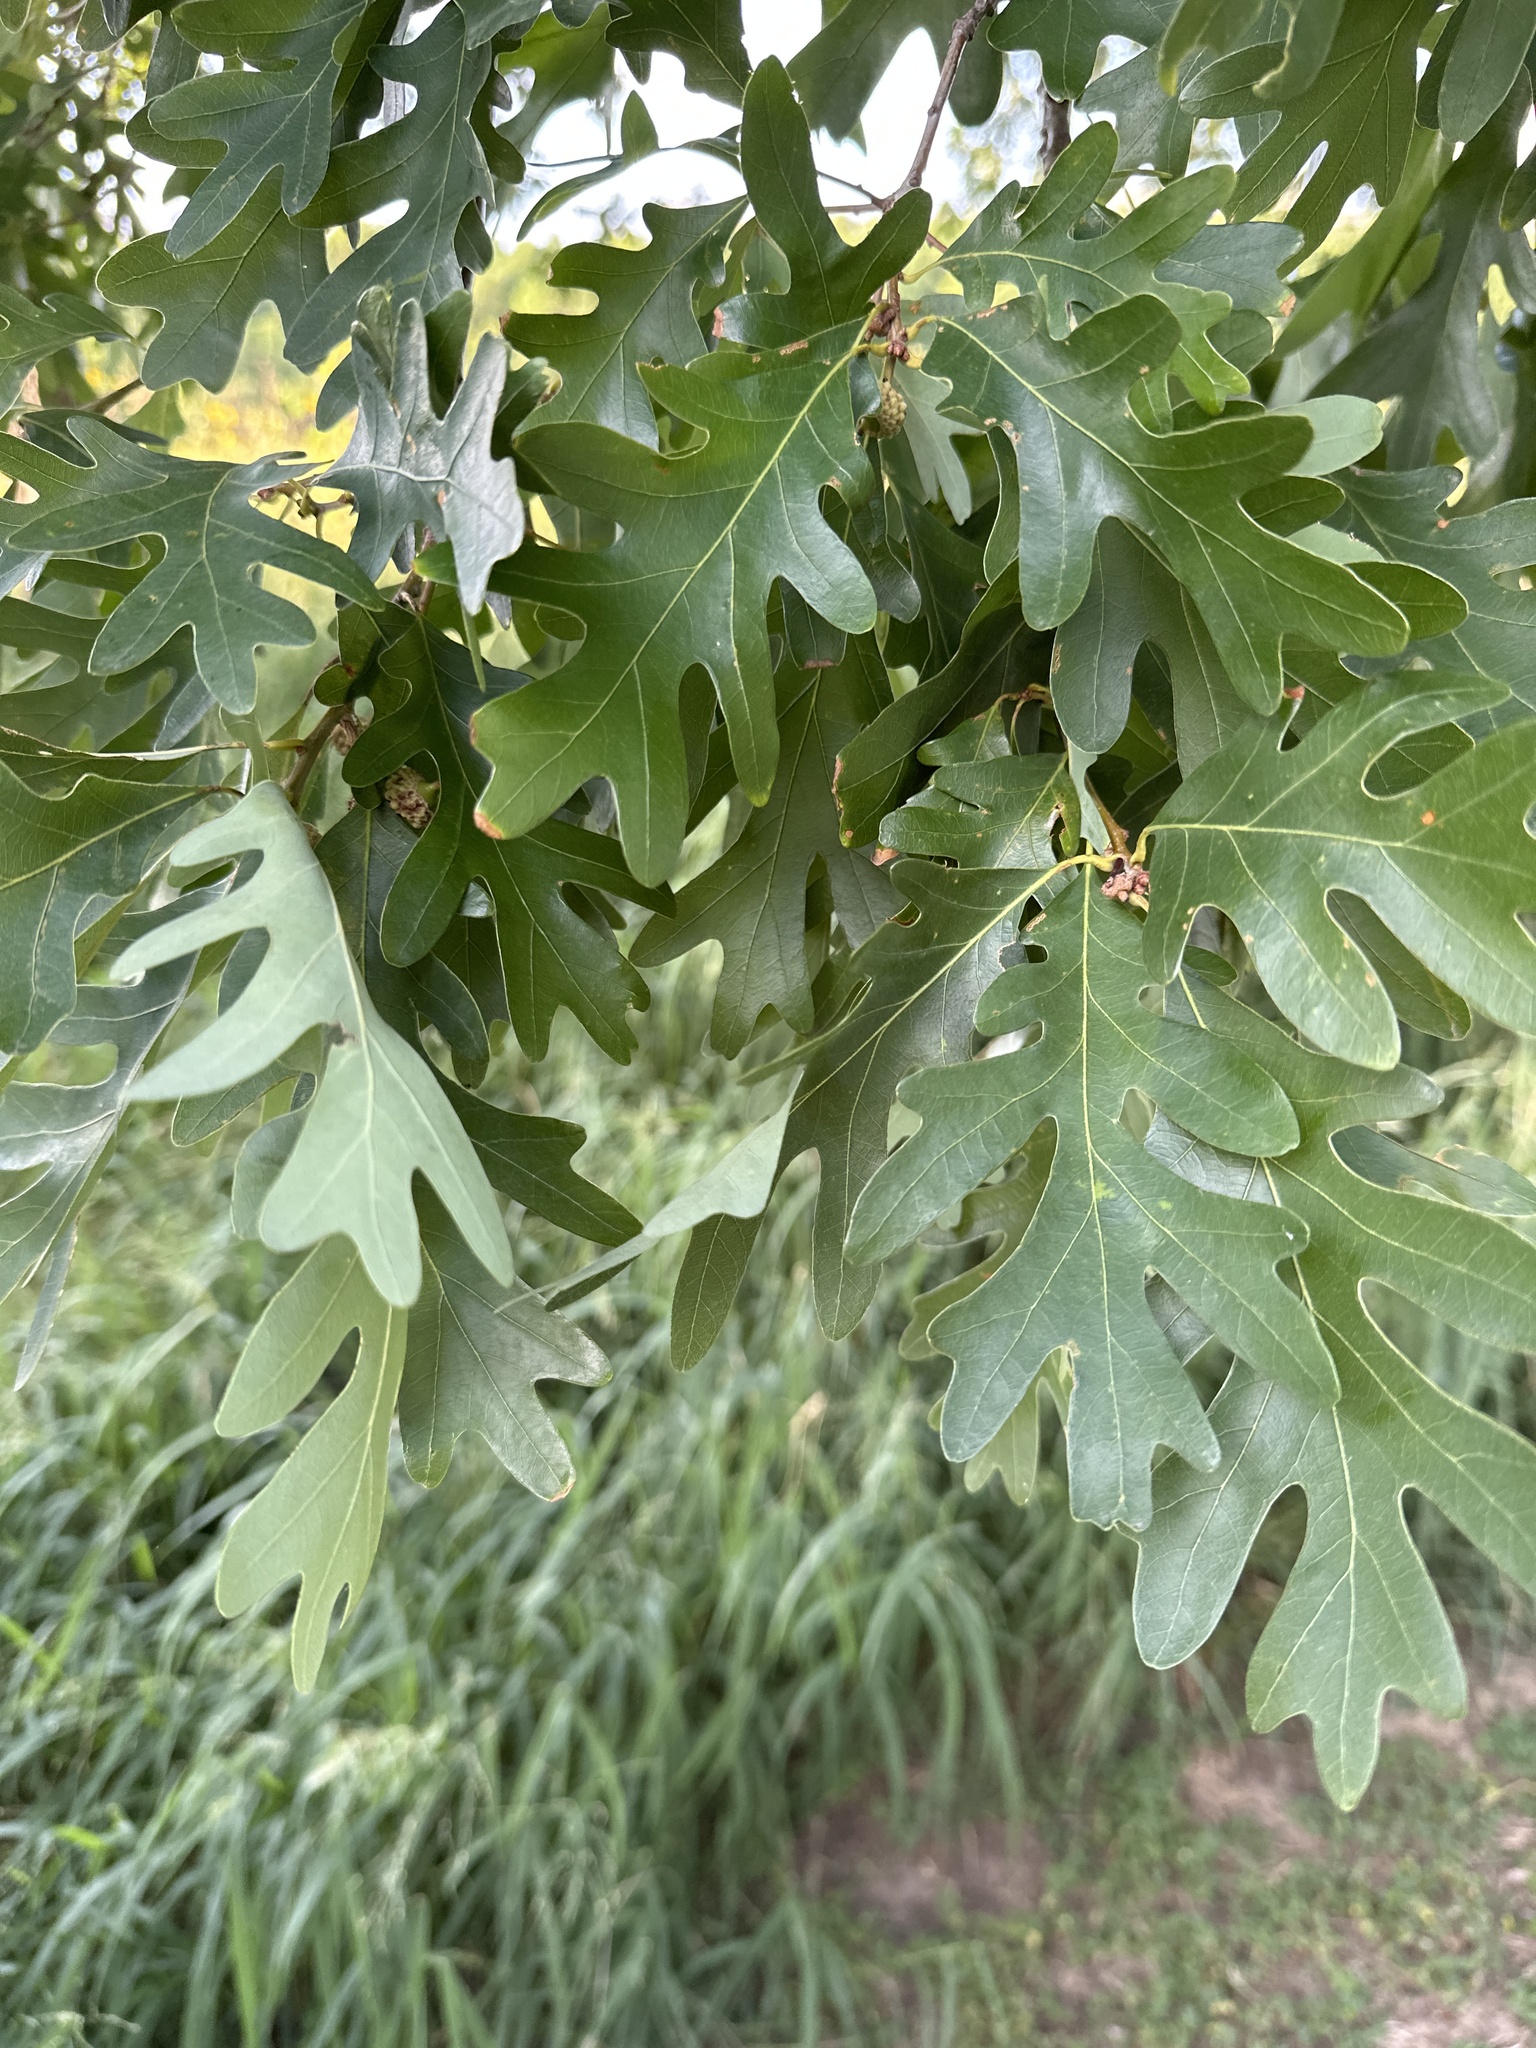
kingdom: Plantae
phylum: Tracheophyta
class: Magnoliopsida
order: Fagales
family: Fagaceae
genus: Quercus
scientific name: Quercus alba
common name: White oak
